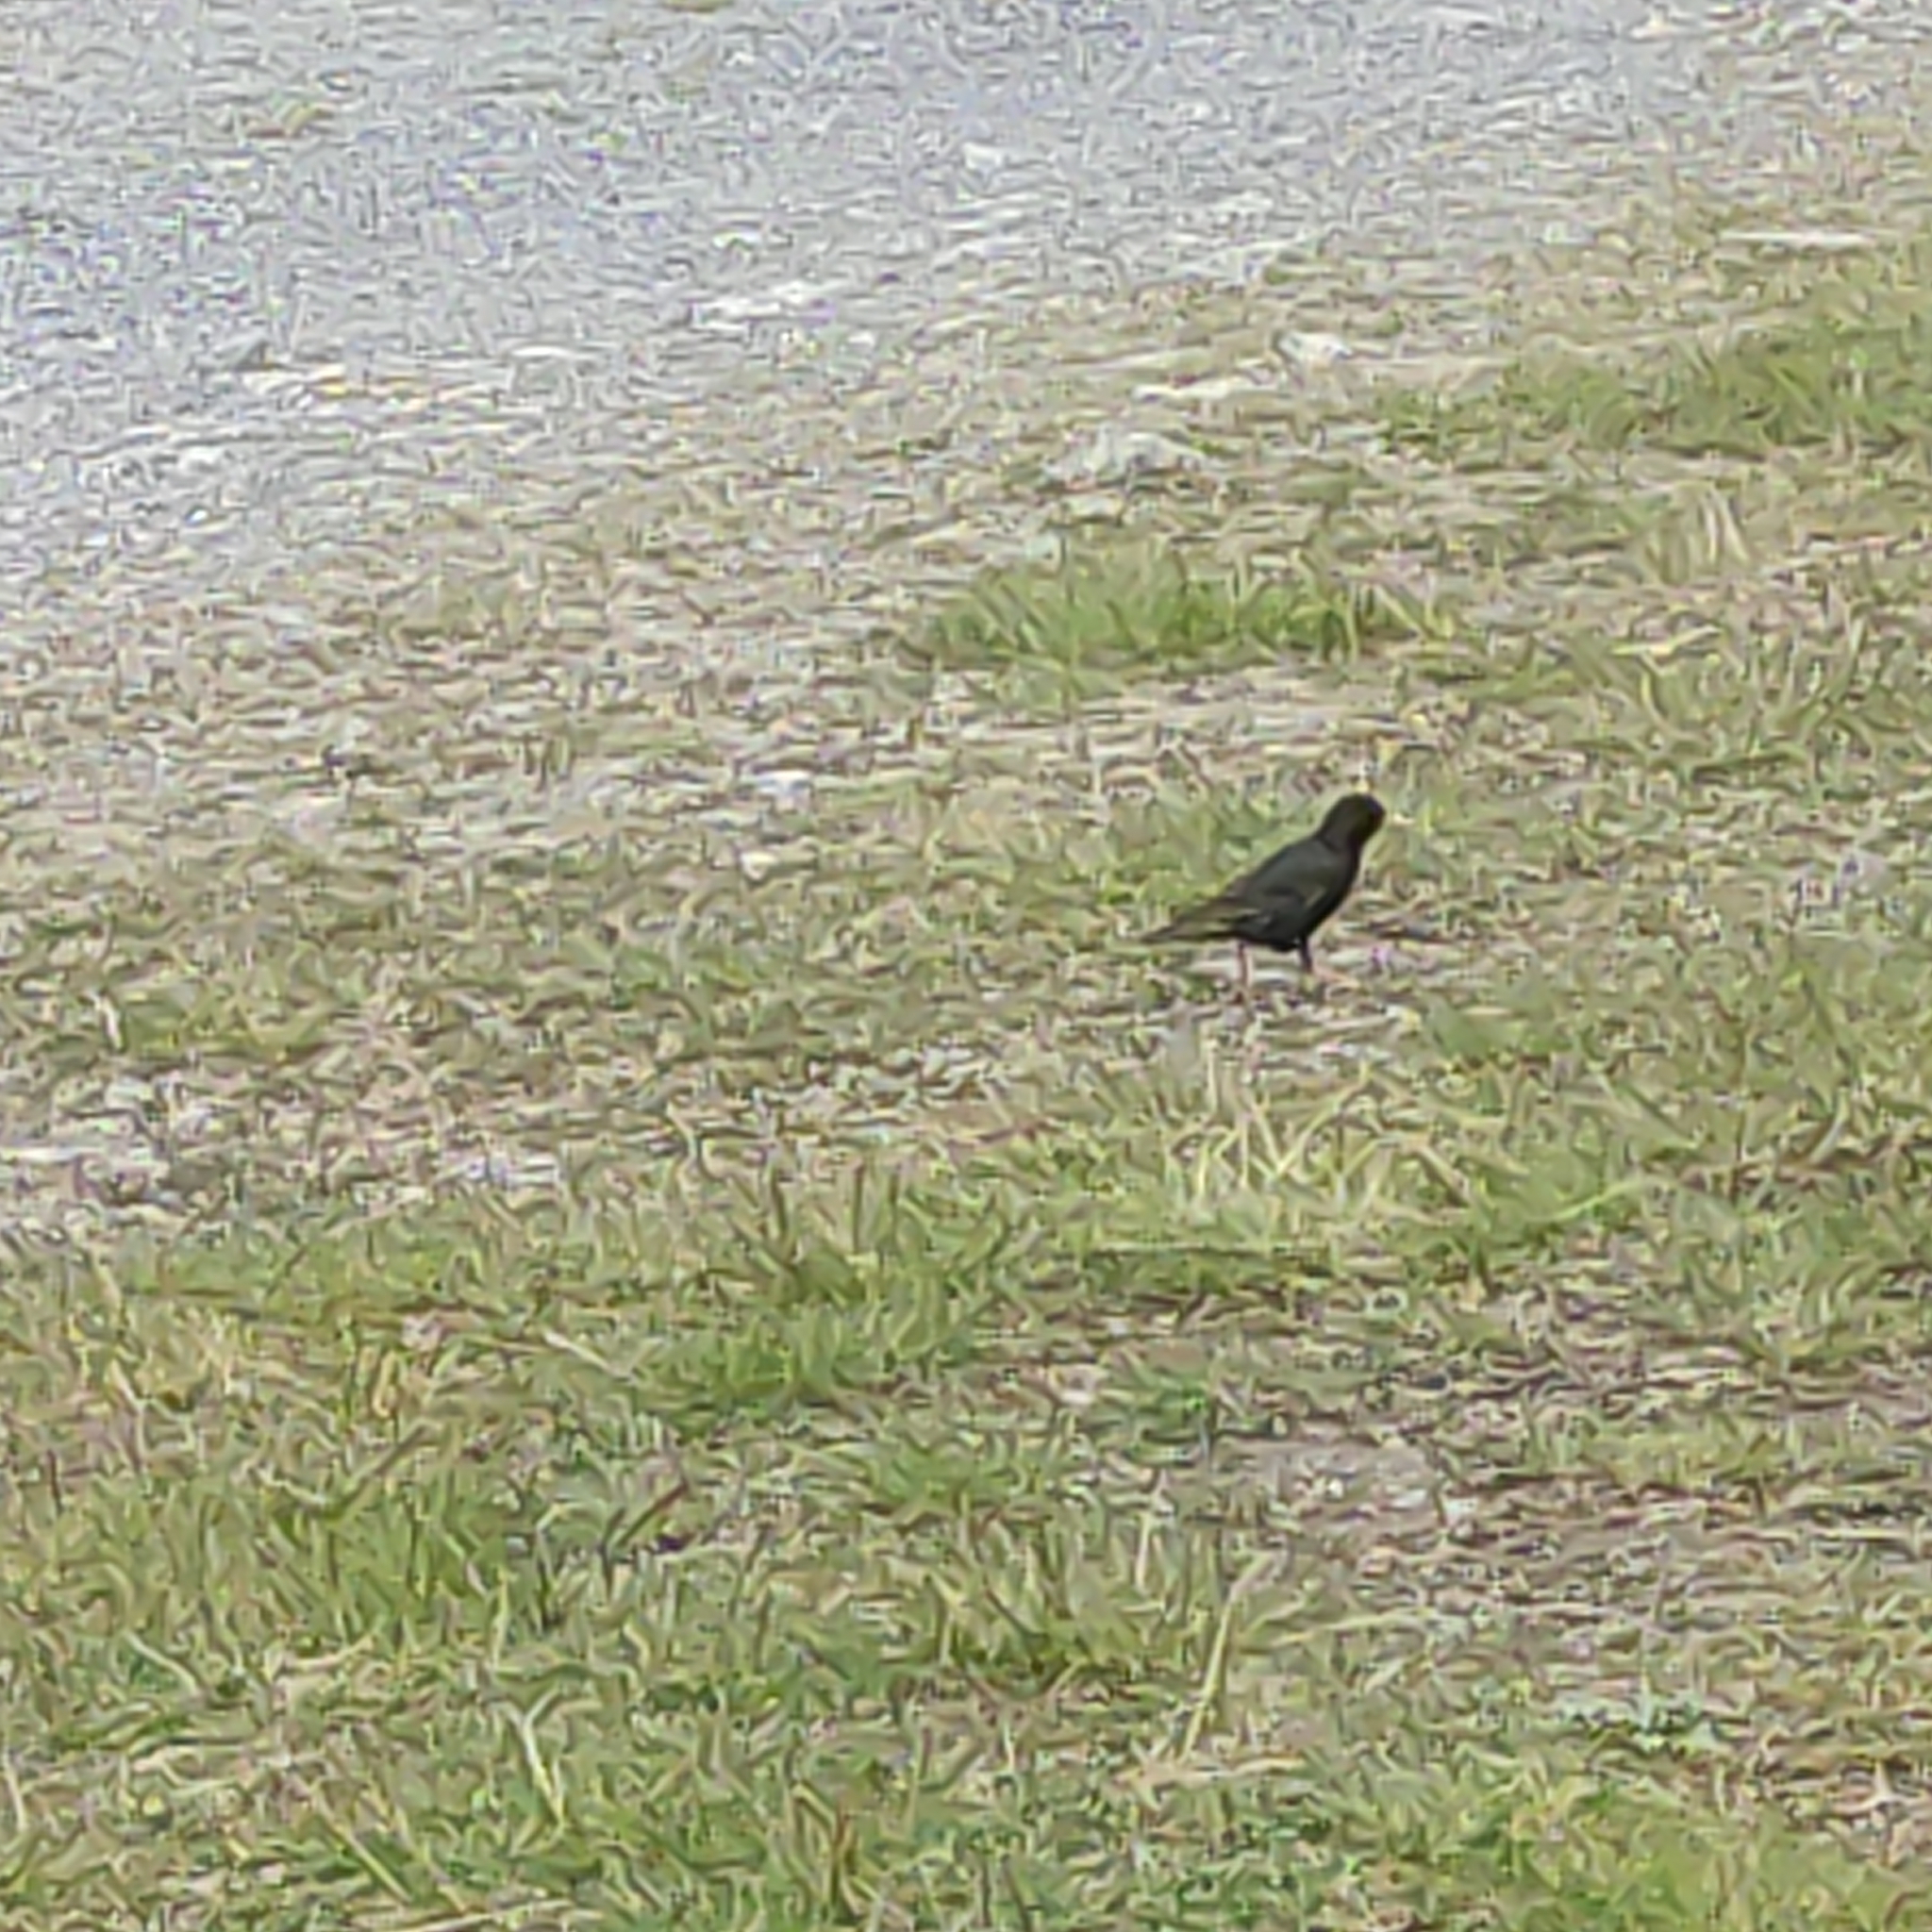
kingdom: Animalia
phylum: Chordata
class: Aves
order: Passeriformes
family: Sturnidae
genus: Sturnus
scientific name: Sturnus vulgaris
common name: Common starling
